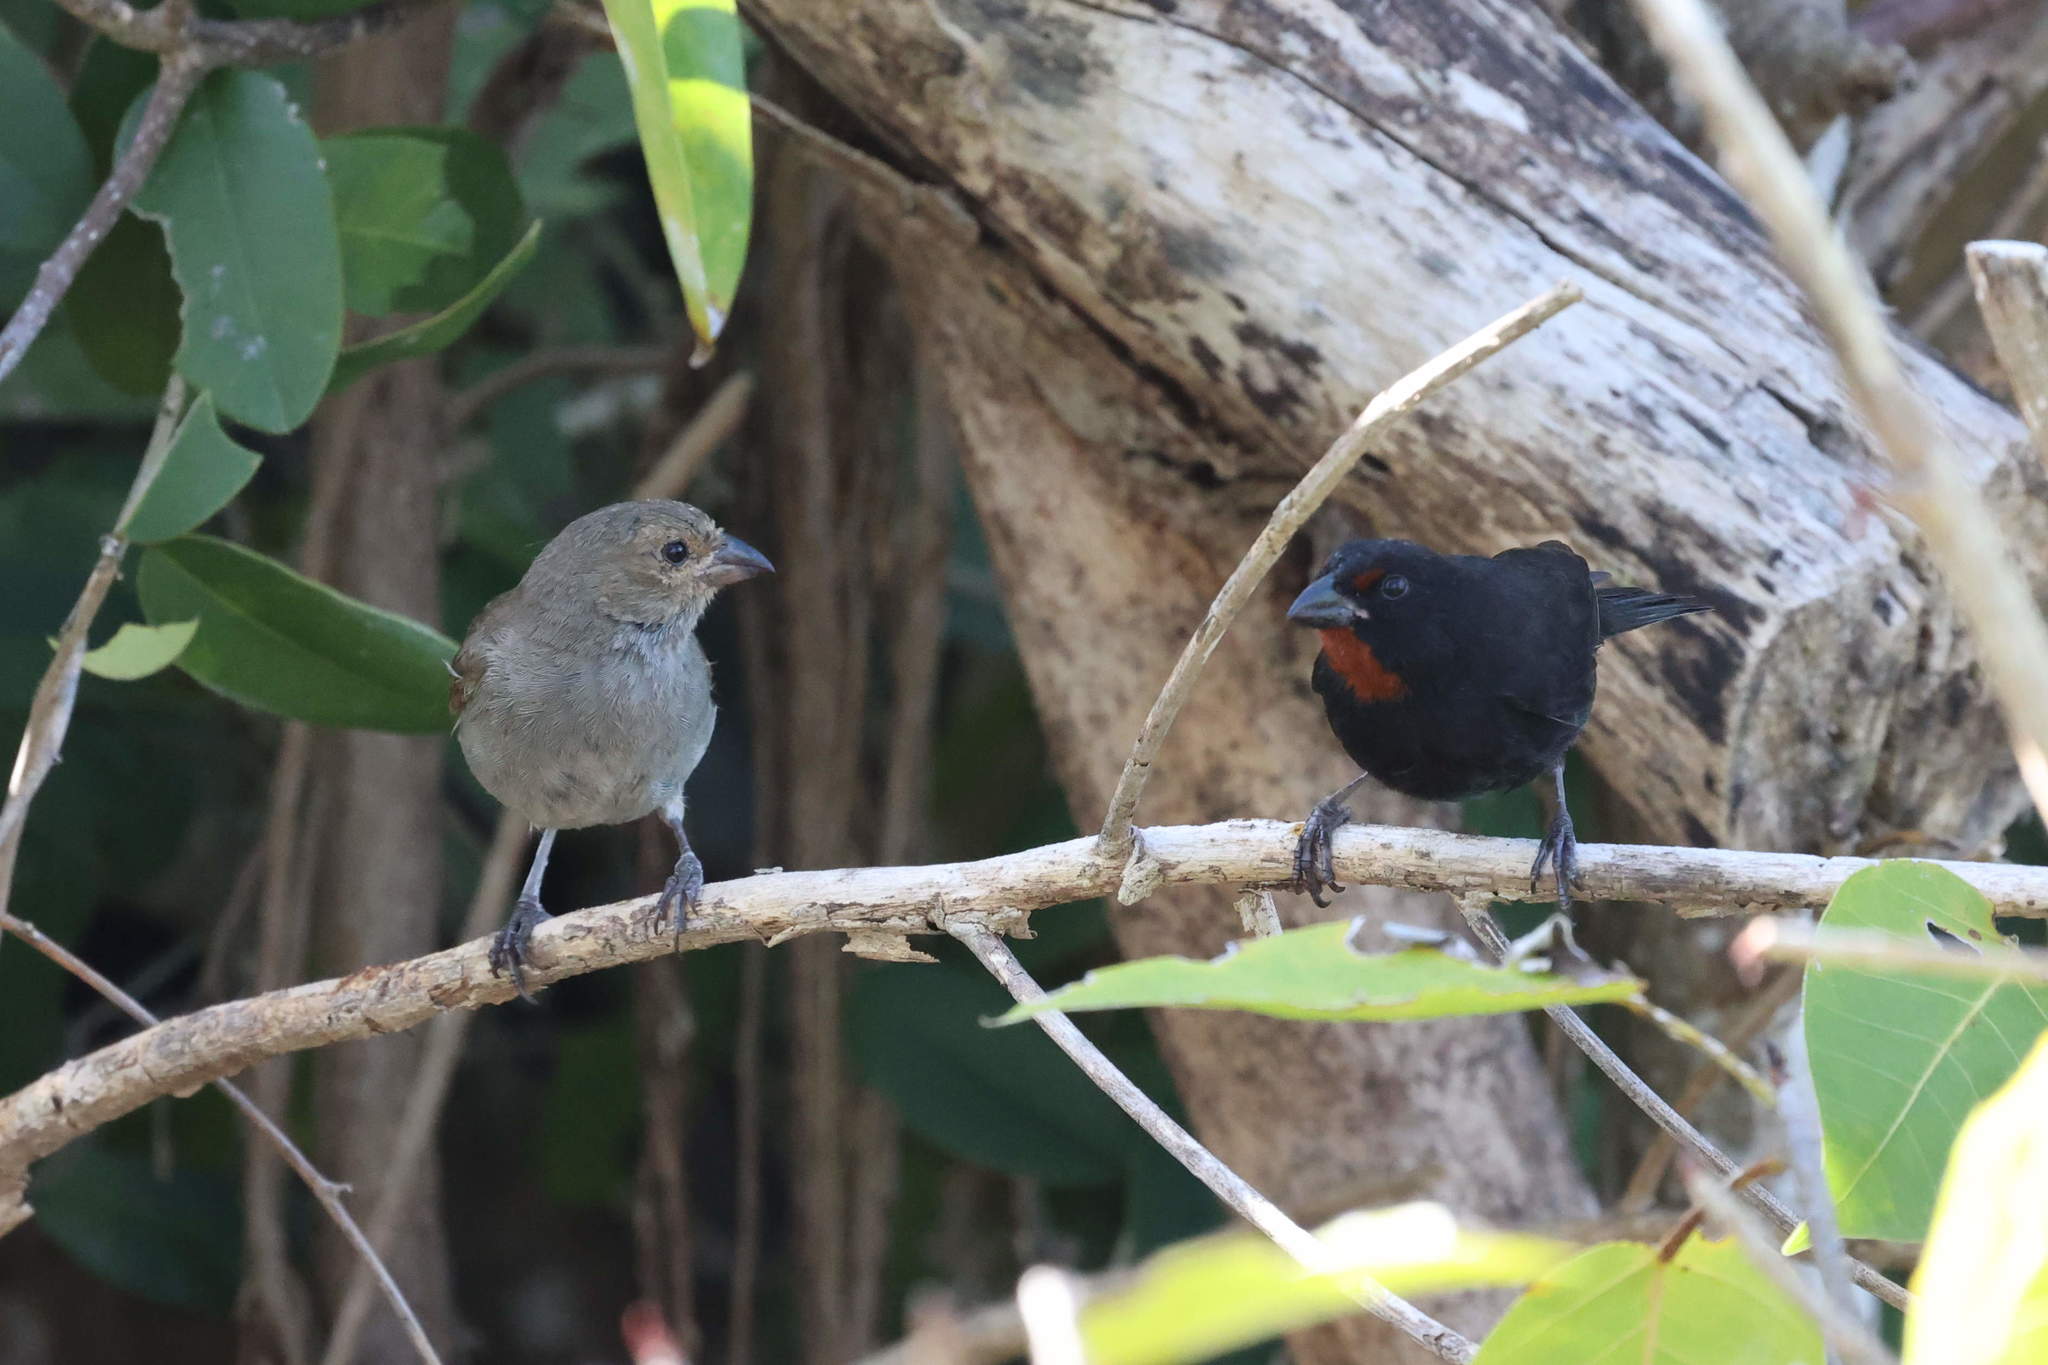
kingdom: Animalia
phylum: Chordata
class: Aves
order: Passeriformes
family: Thraupidae
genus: Loxigilla
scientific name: Loxigilla noctis
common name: Lesser antillean bullfinch
